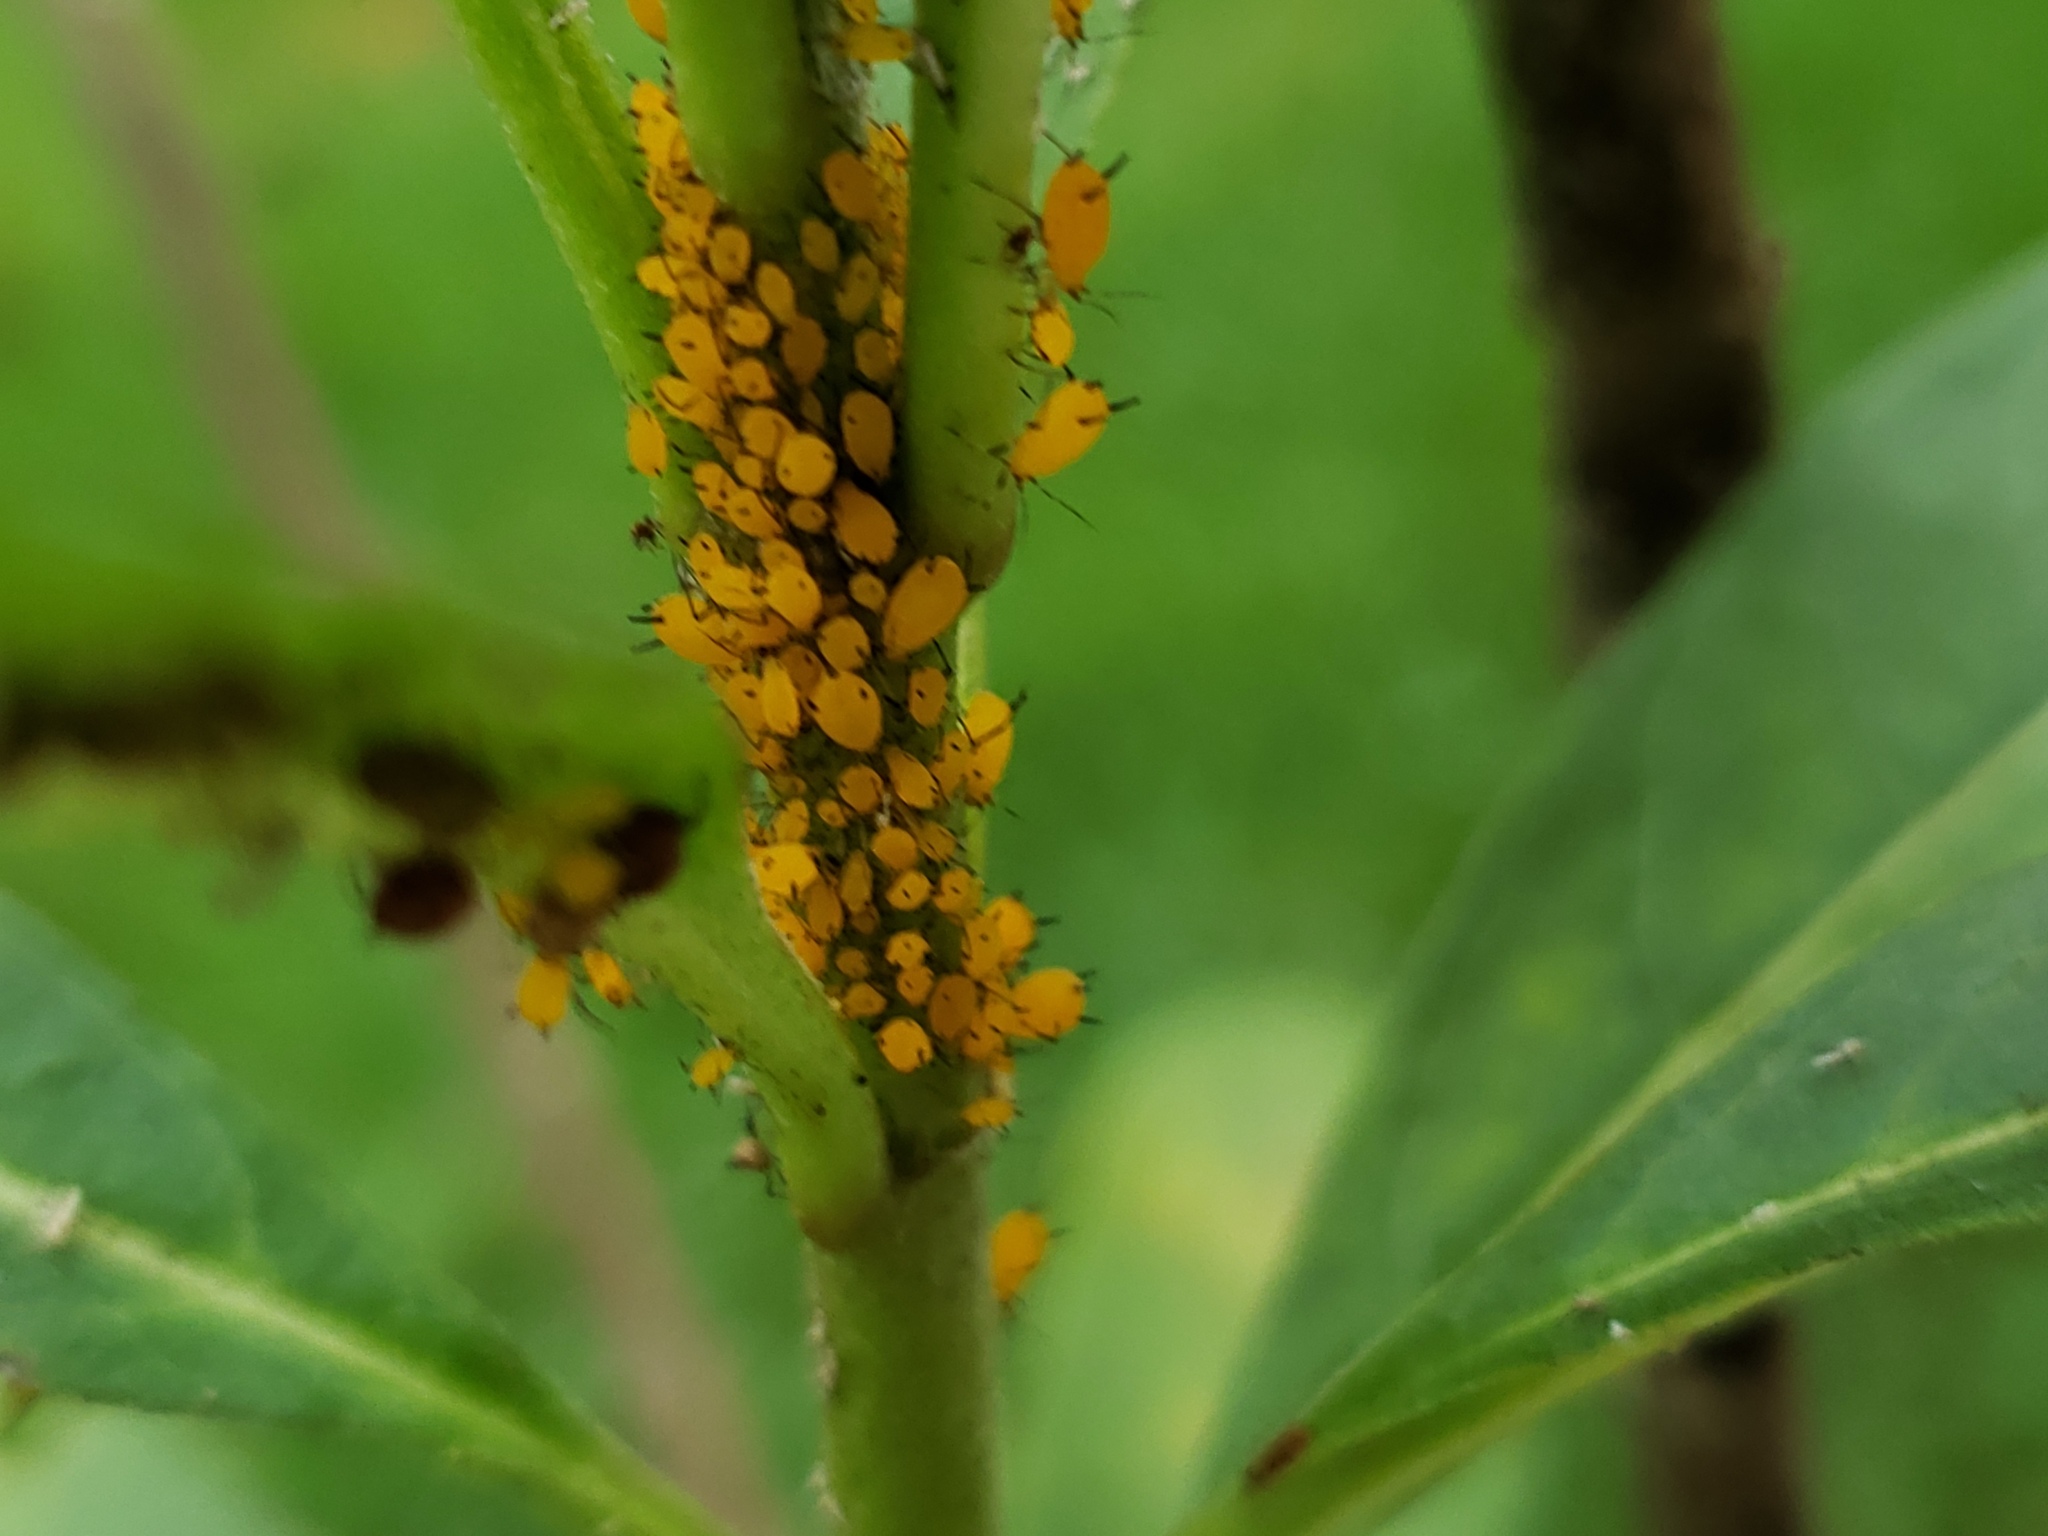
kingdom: Animalia
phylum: Arthropoda
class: Insecta
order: Hemiptera
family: Aphididae
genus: Aphis
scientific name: Aphis nerii
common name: Oleander aphid
